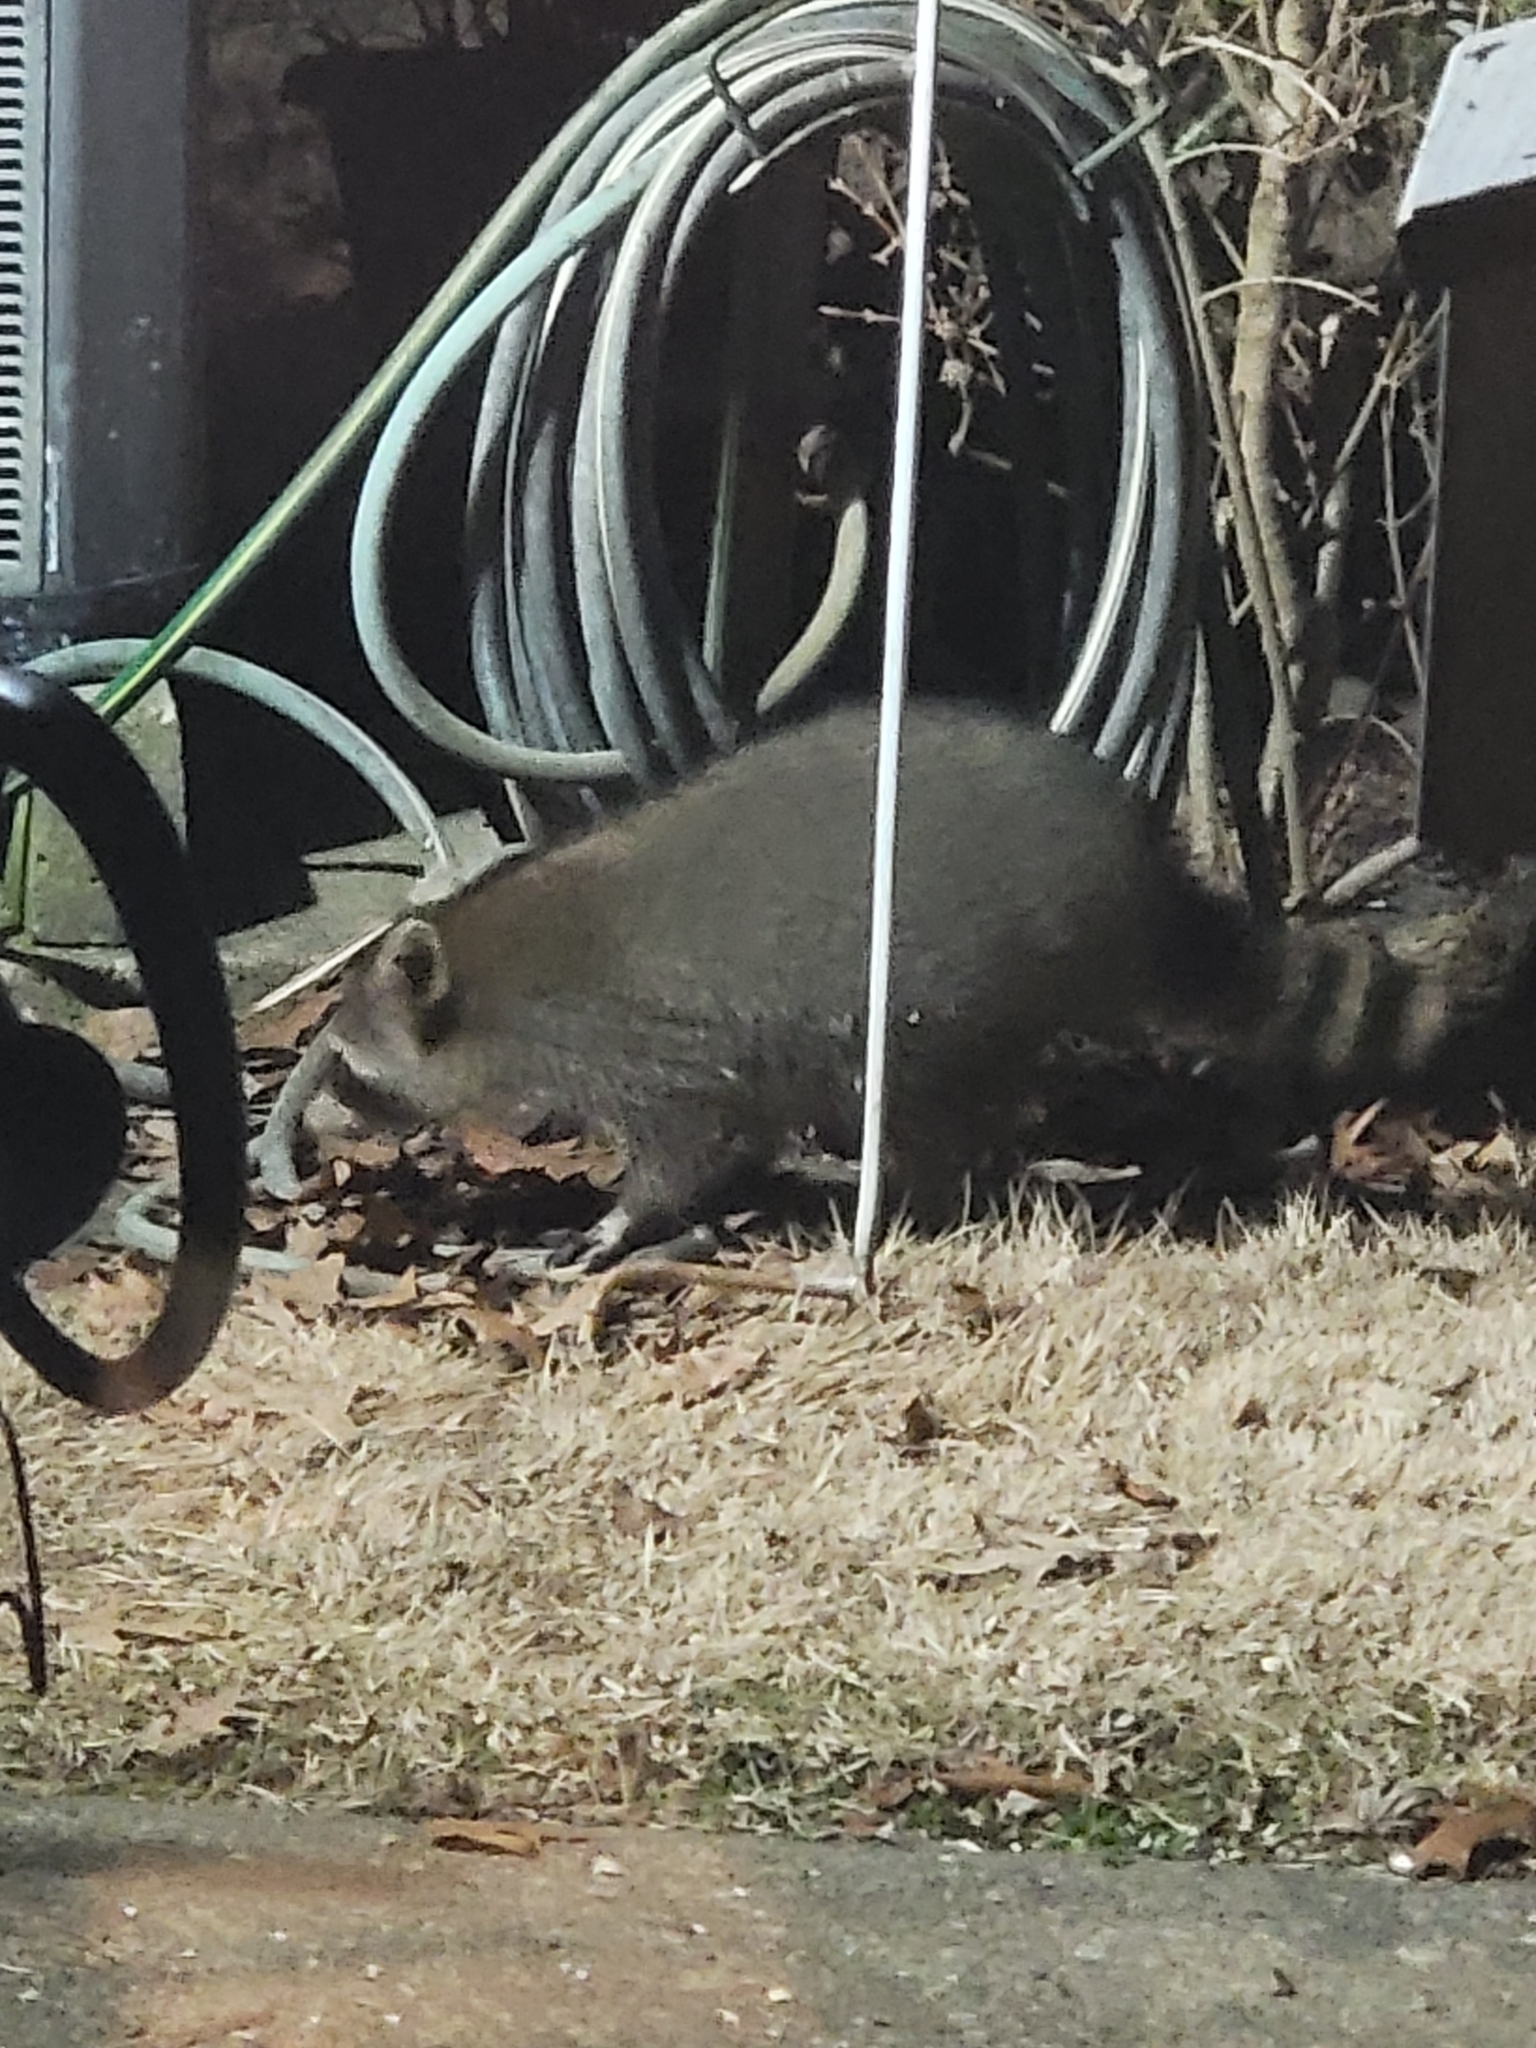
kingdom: Animalia
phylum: Chordata
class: Mammalia
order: Carnivora
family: Procyonidae
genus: Procyon
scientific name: Procyon lotor
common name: Raccoon
